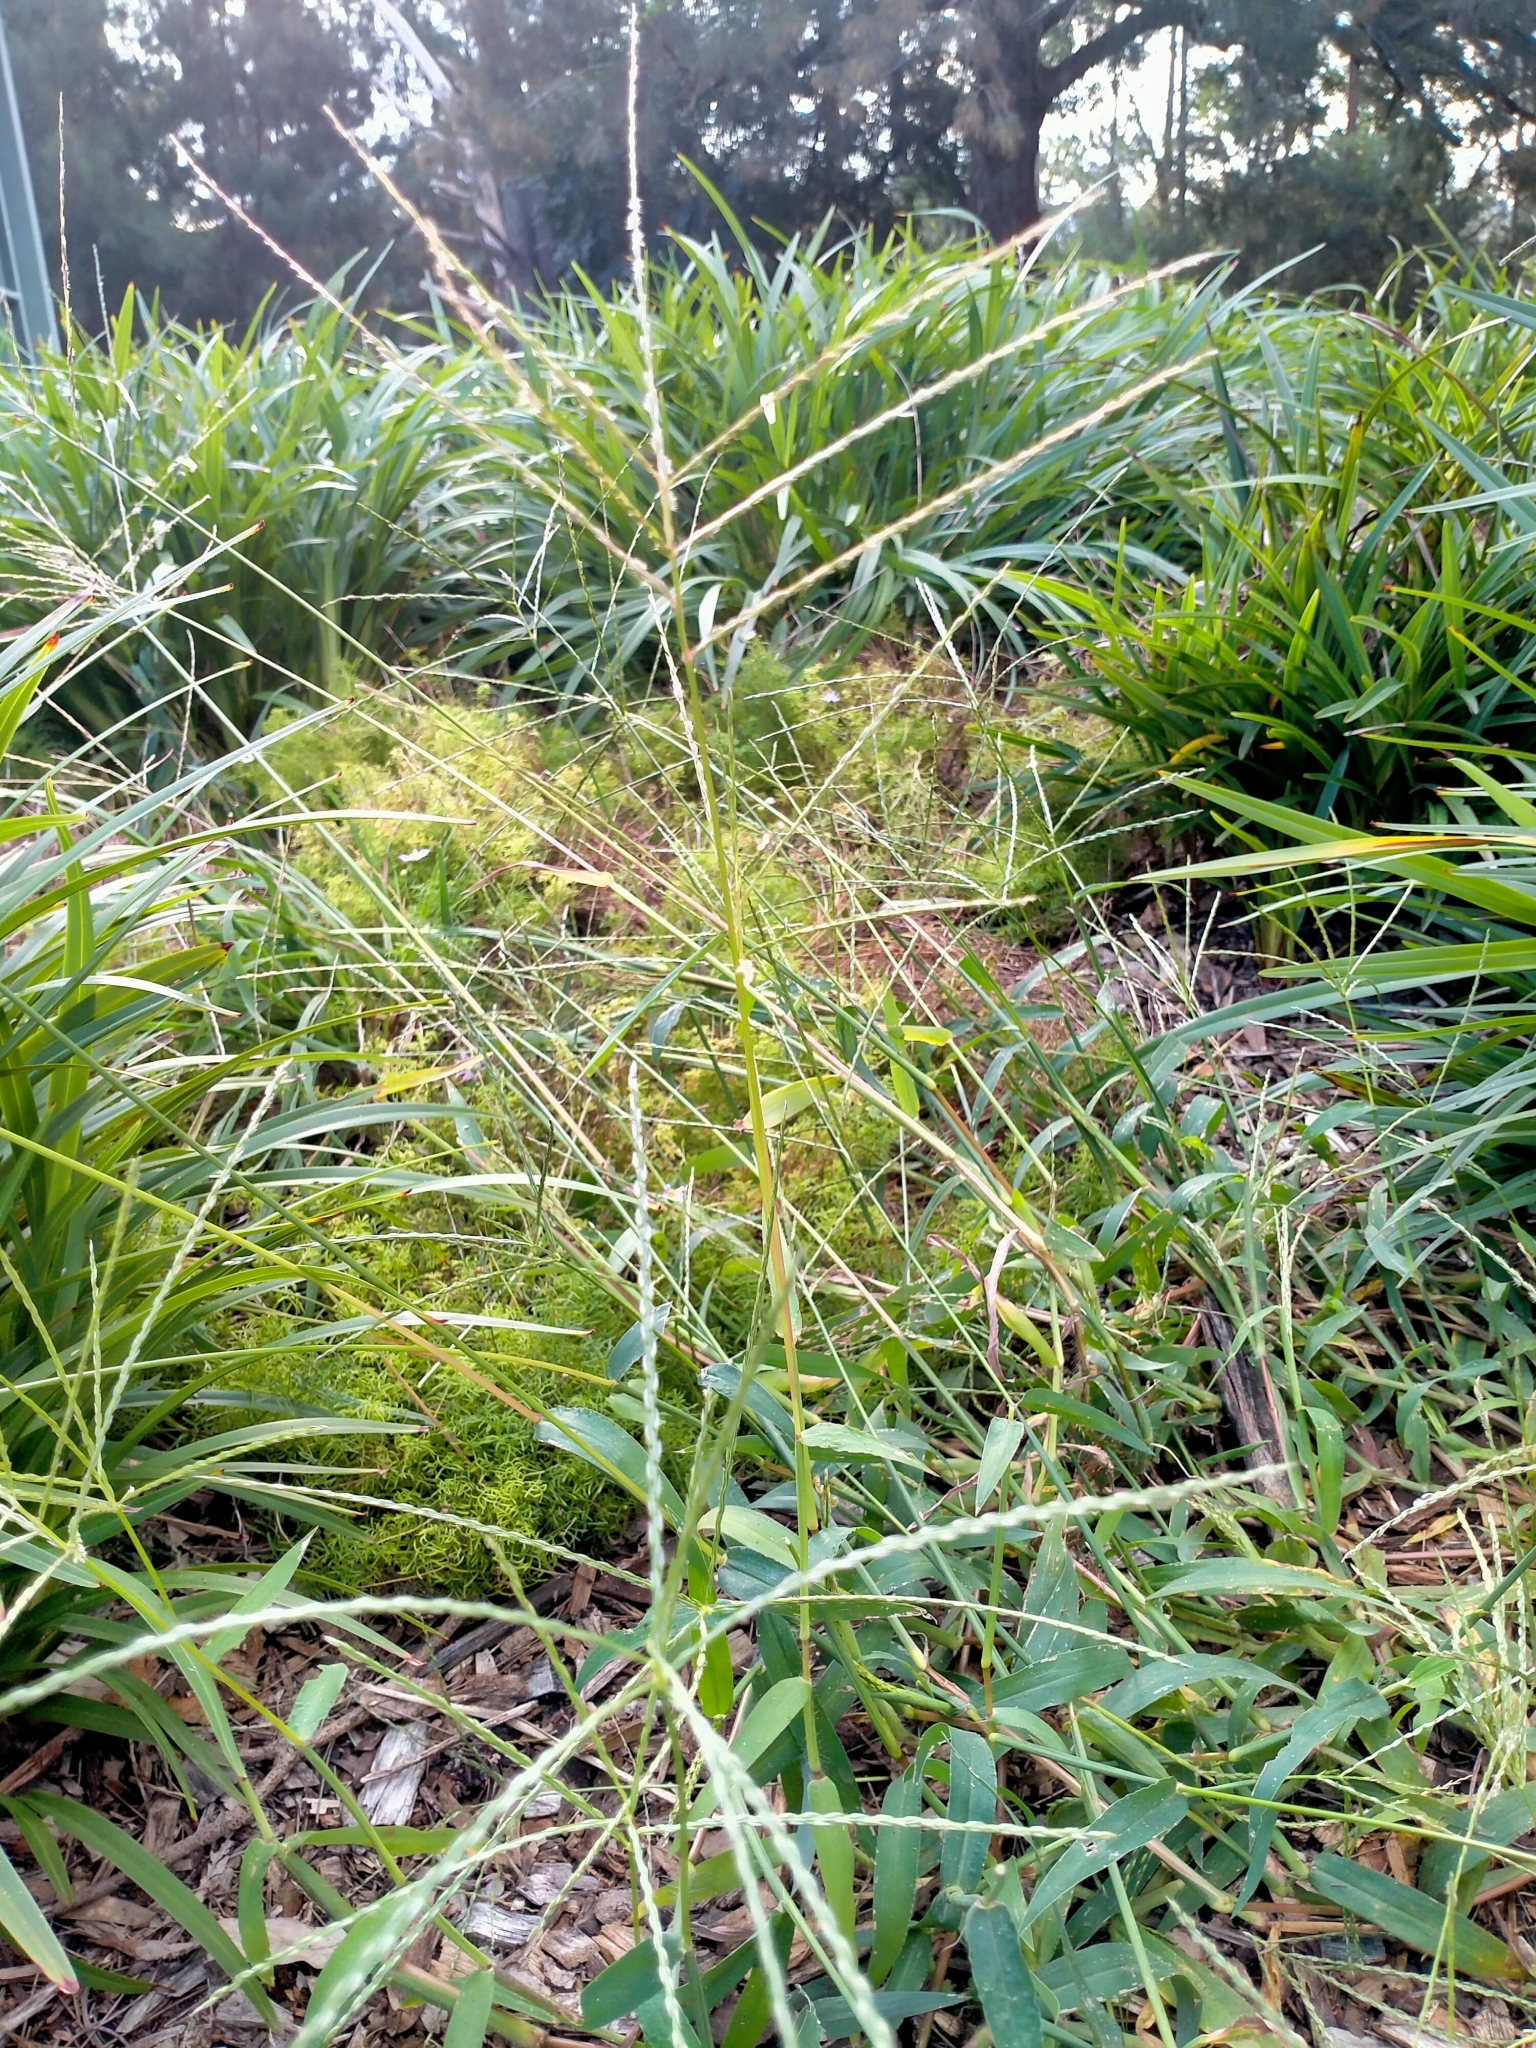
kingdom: Plantae
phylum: Tracheophyta
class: Liliopsida
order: Poales
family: Poaceae
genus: Digitaria
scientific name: Digitaria ciliaris
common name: Tropical finger-grass
